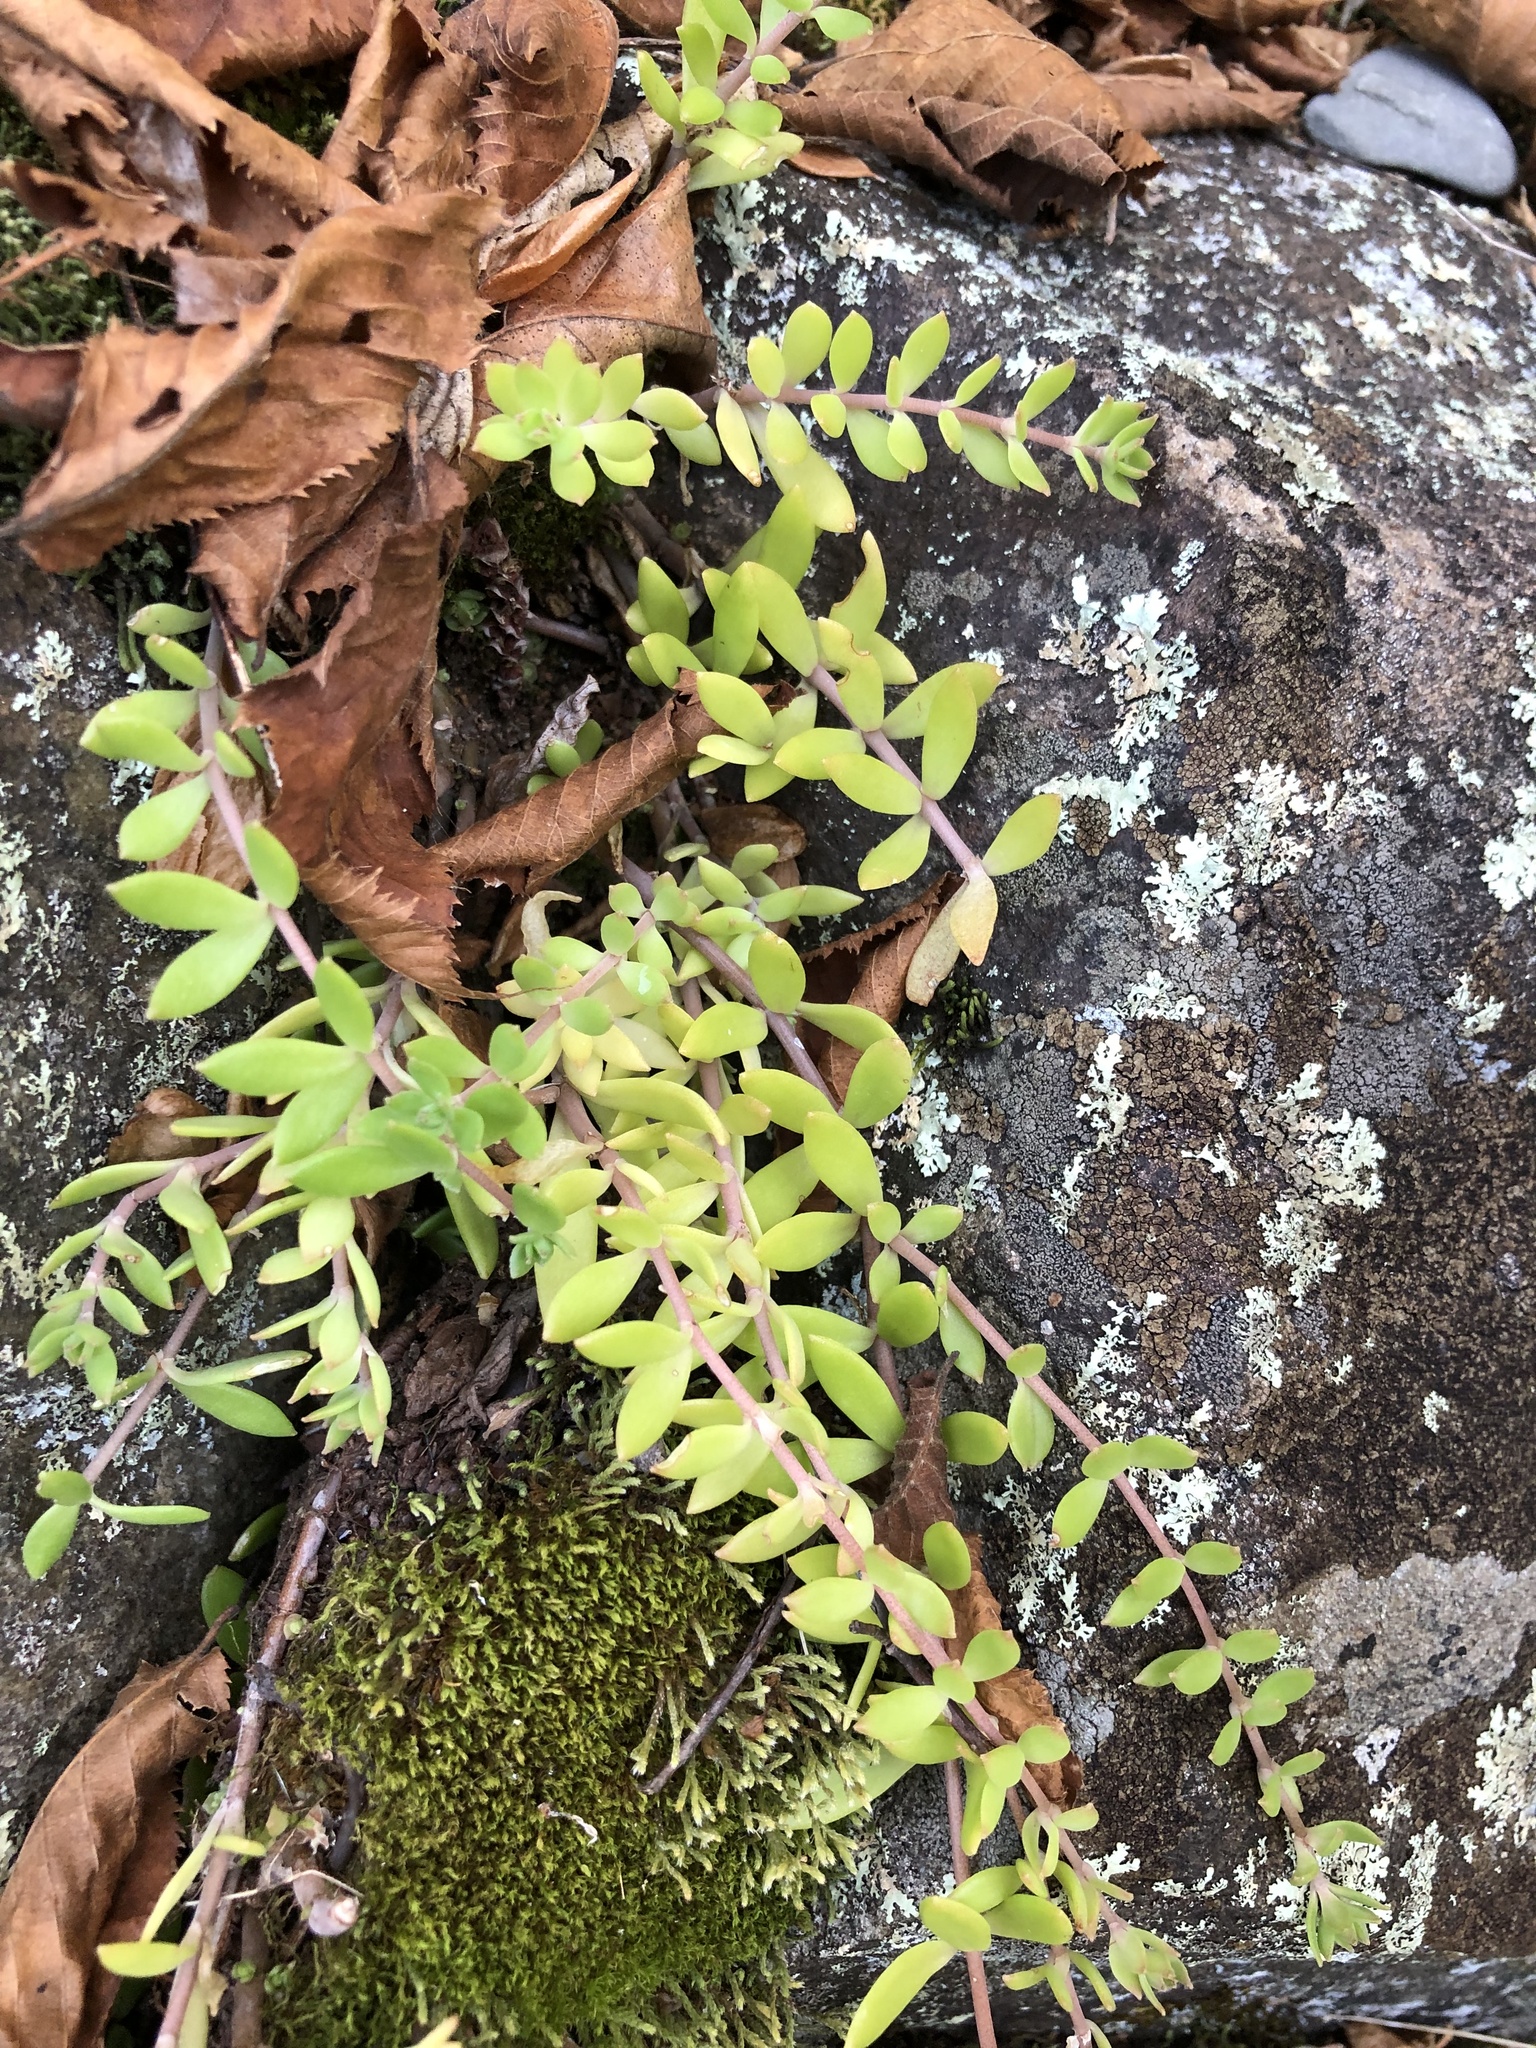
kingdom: Plantae
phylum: Tracheophyta
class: Magnoliopsida
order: Saxifragales
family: Crassulaceae
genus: Sedum
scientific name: Sedum sarmentosum
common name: Stringy stonecrop
